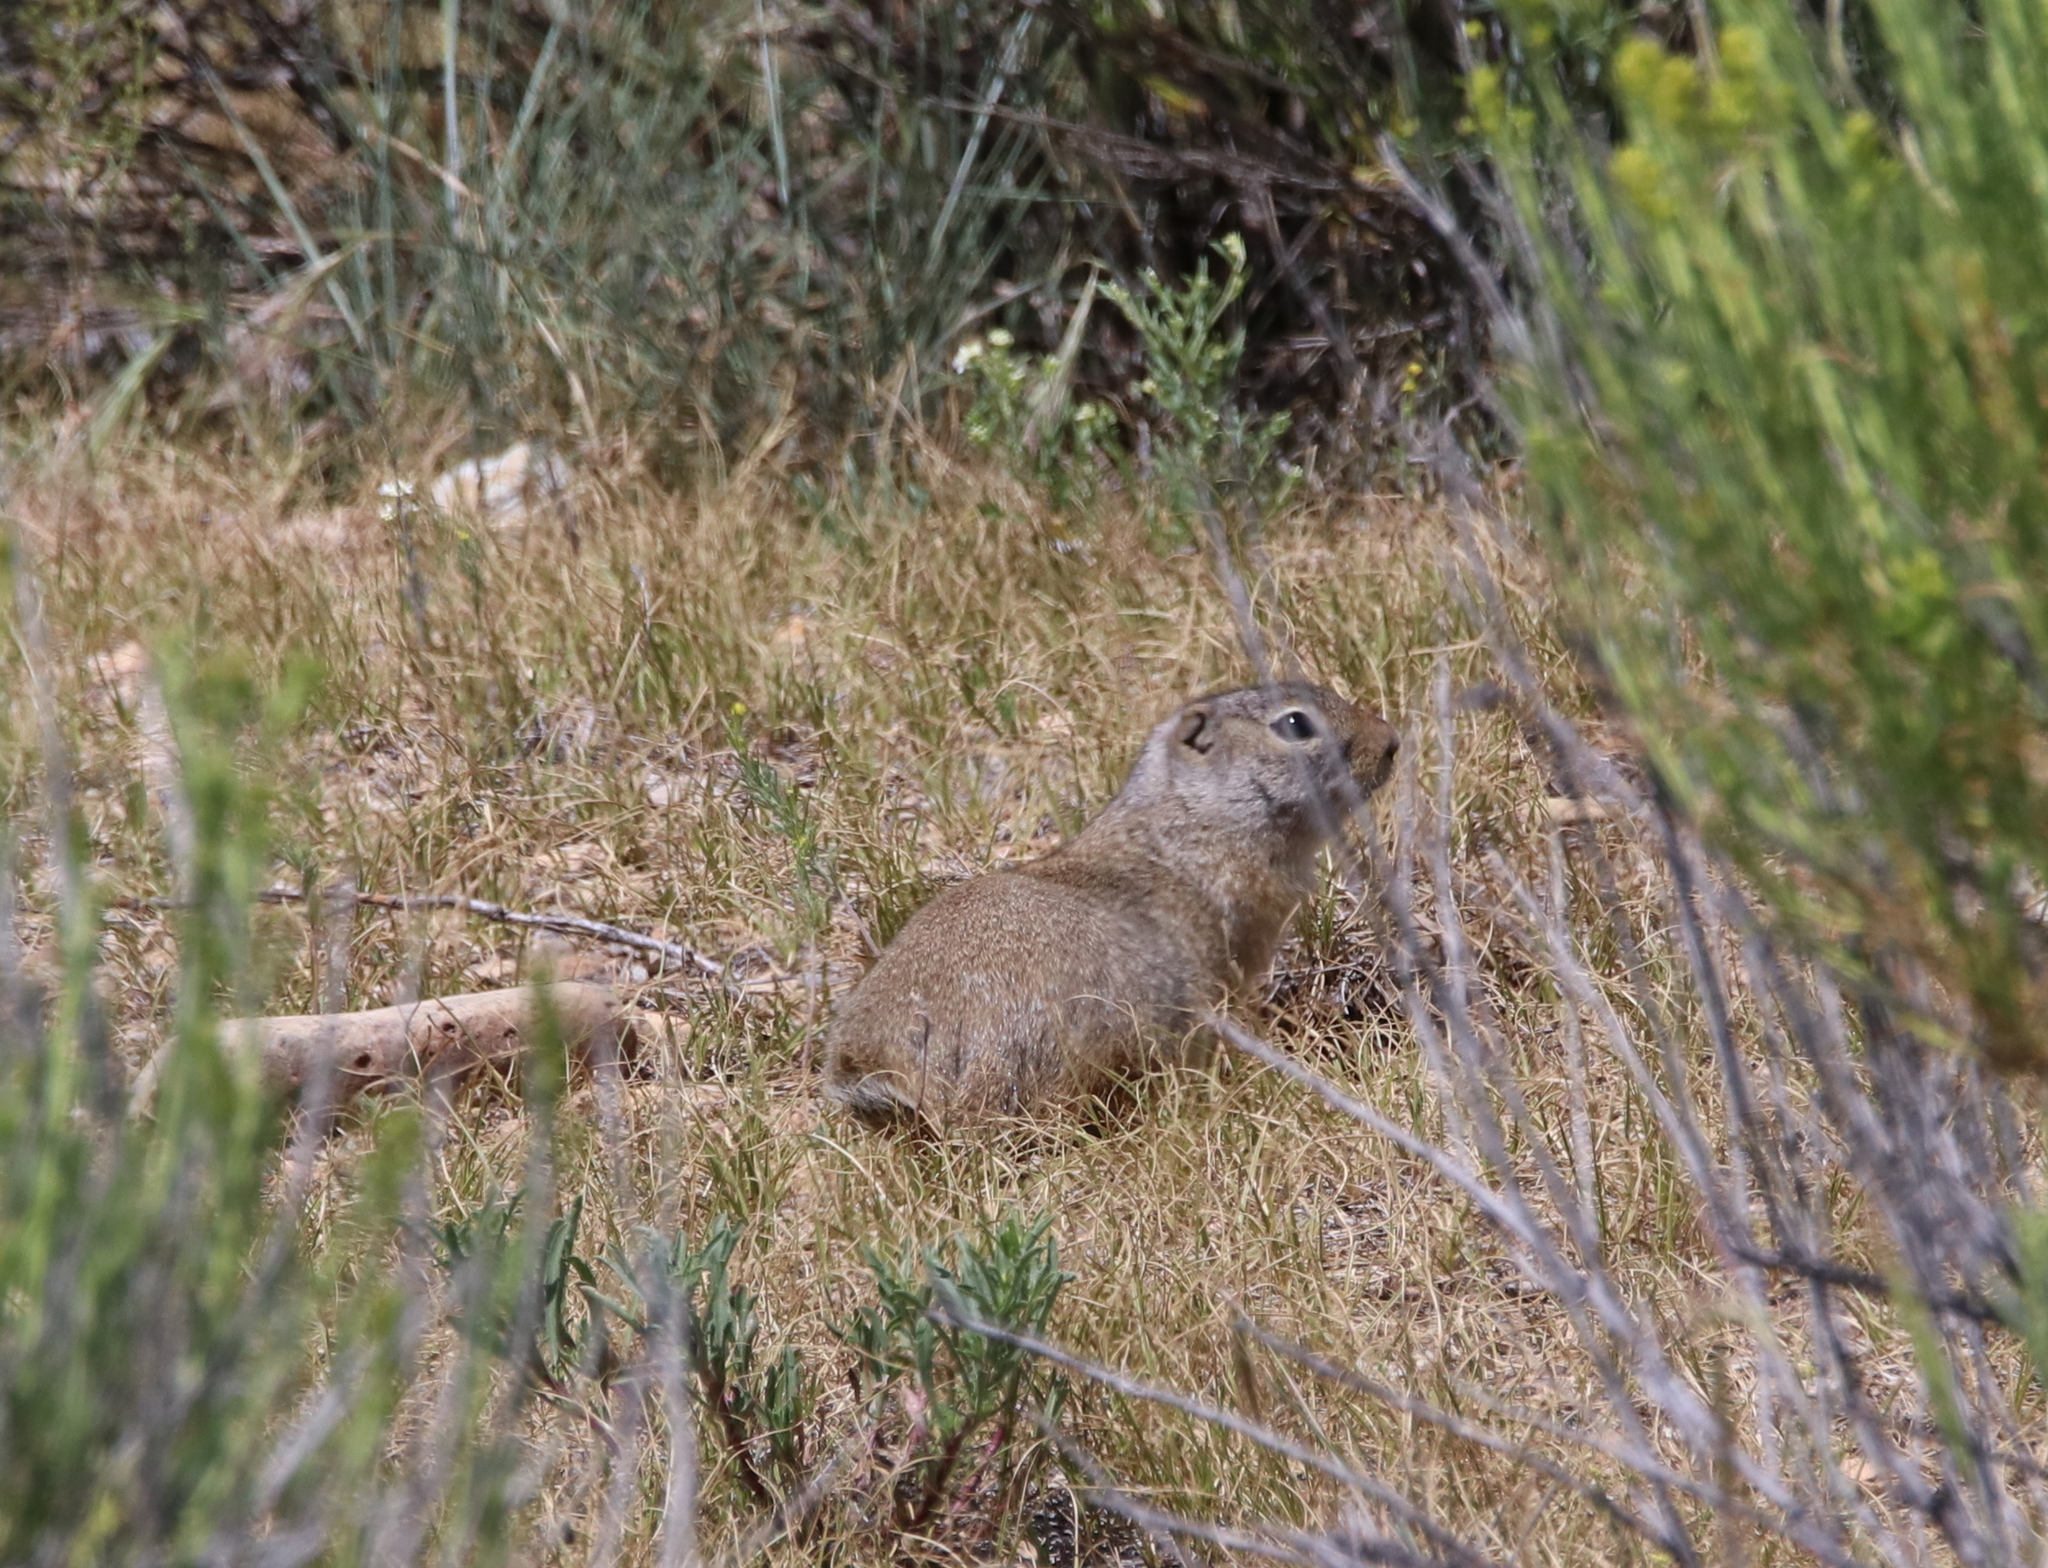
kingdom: Animalia
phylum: Chordata
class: Mammalia
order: Rodentia
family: Sciuridae
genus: Urocitellus
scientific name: Urocitellus elegans
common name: Wyoming ground squirrel
